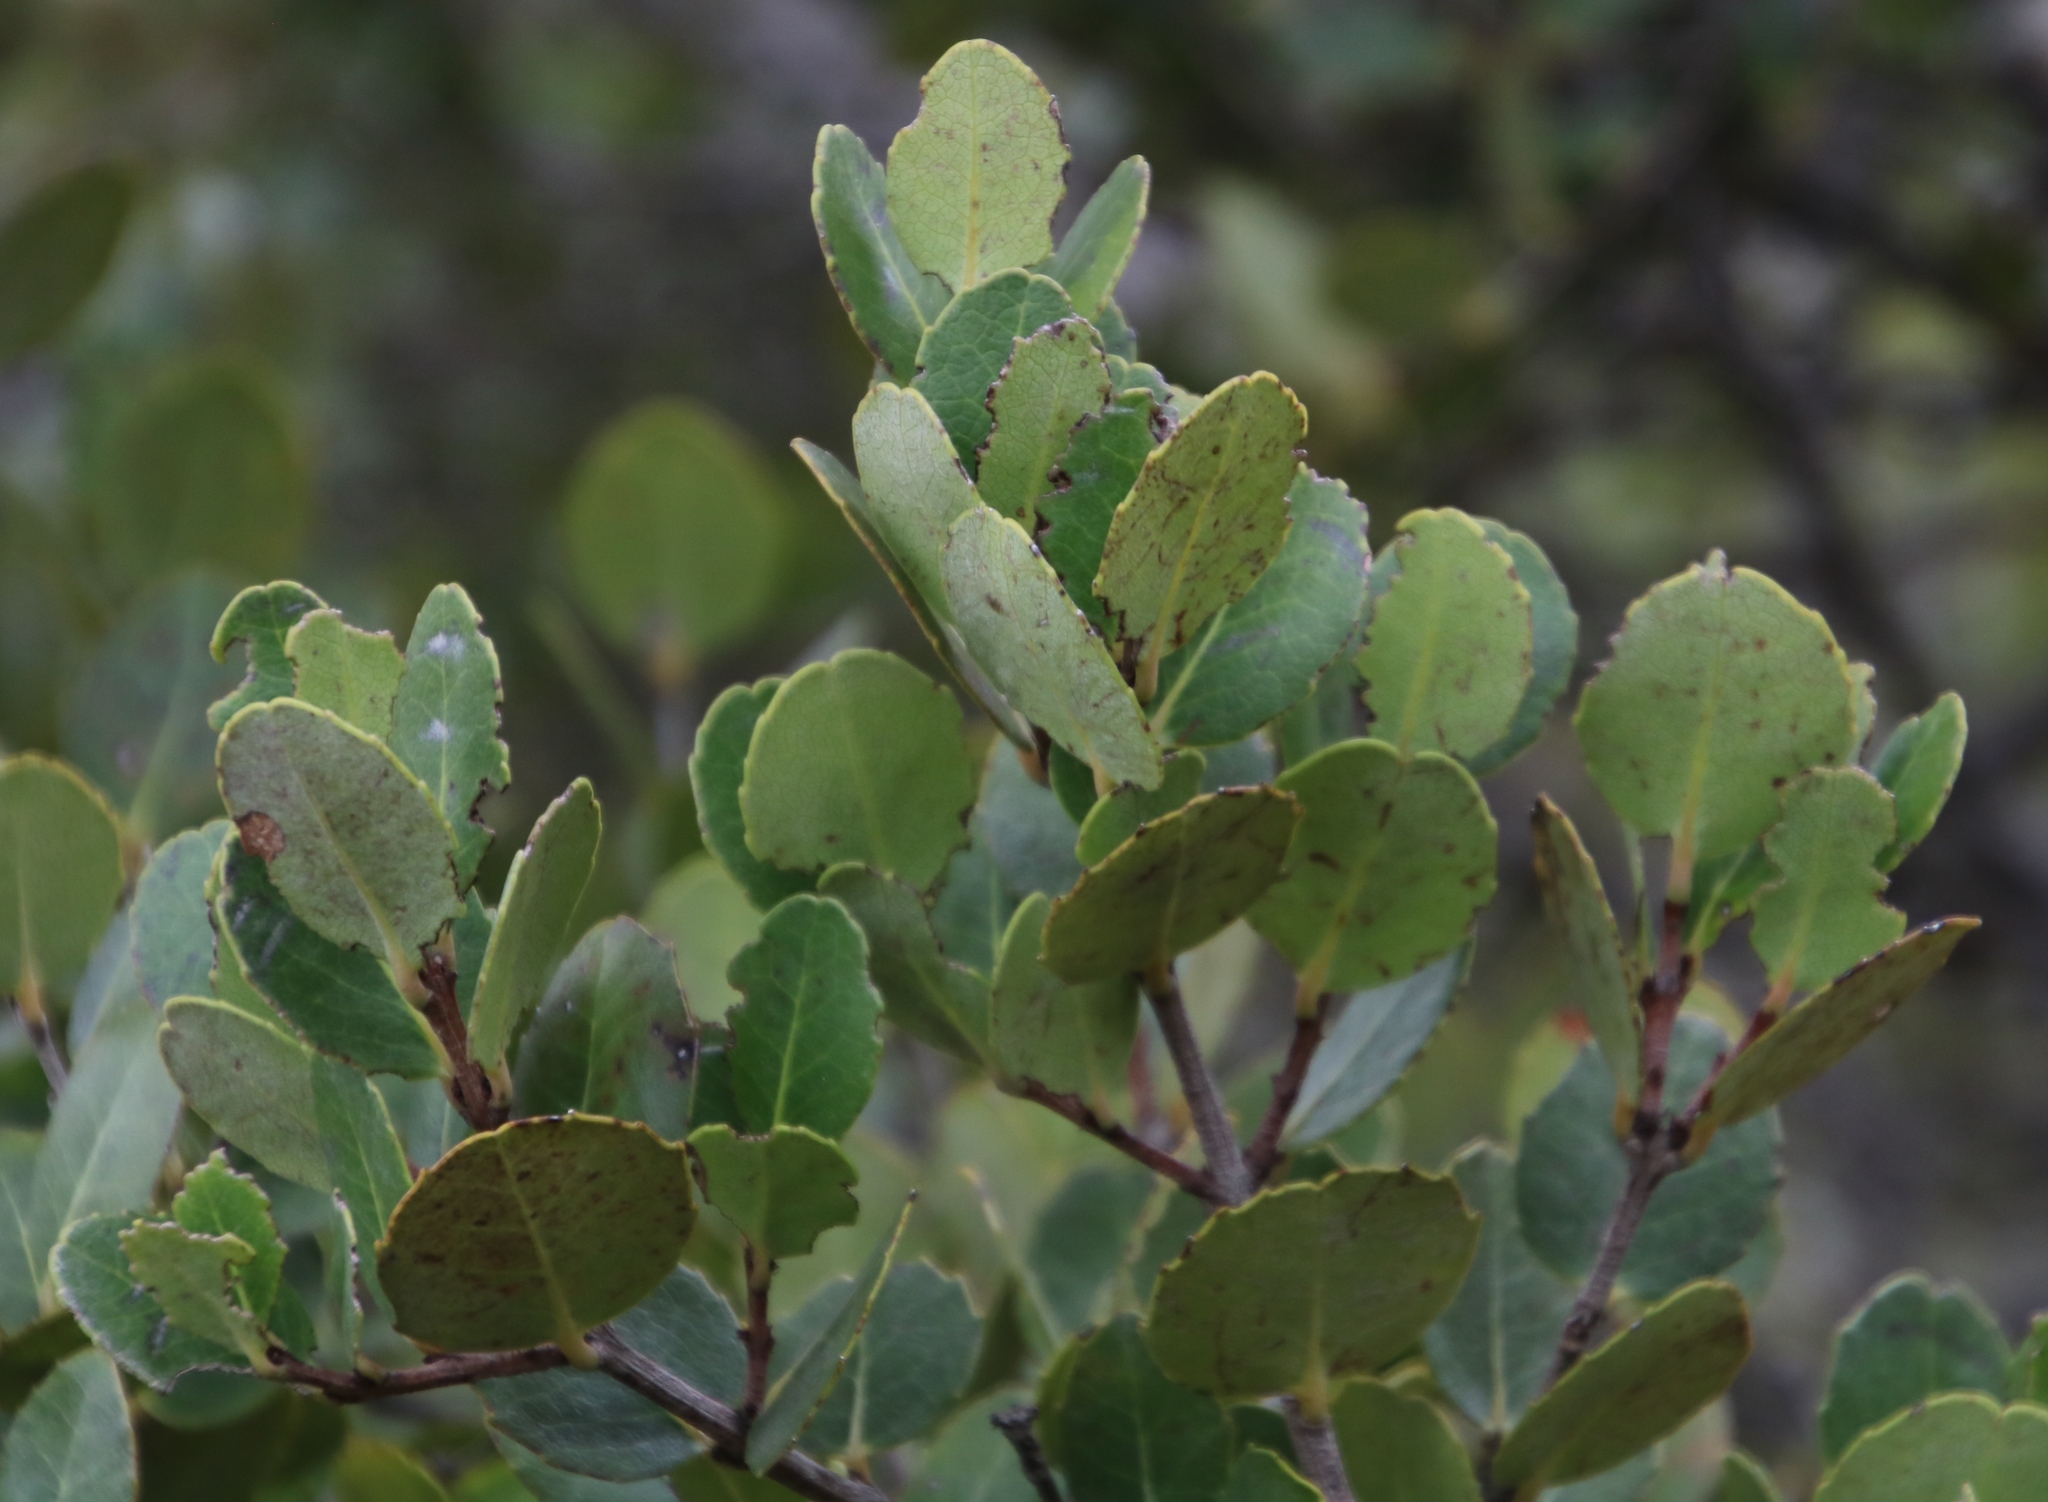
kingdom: Plantae
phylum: Tracheophyta
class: Magnoliopsida
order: Celastrales
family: Celastraceae
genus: Cassine
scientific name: Cassine peragua
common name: Cape saffron
